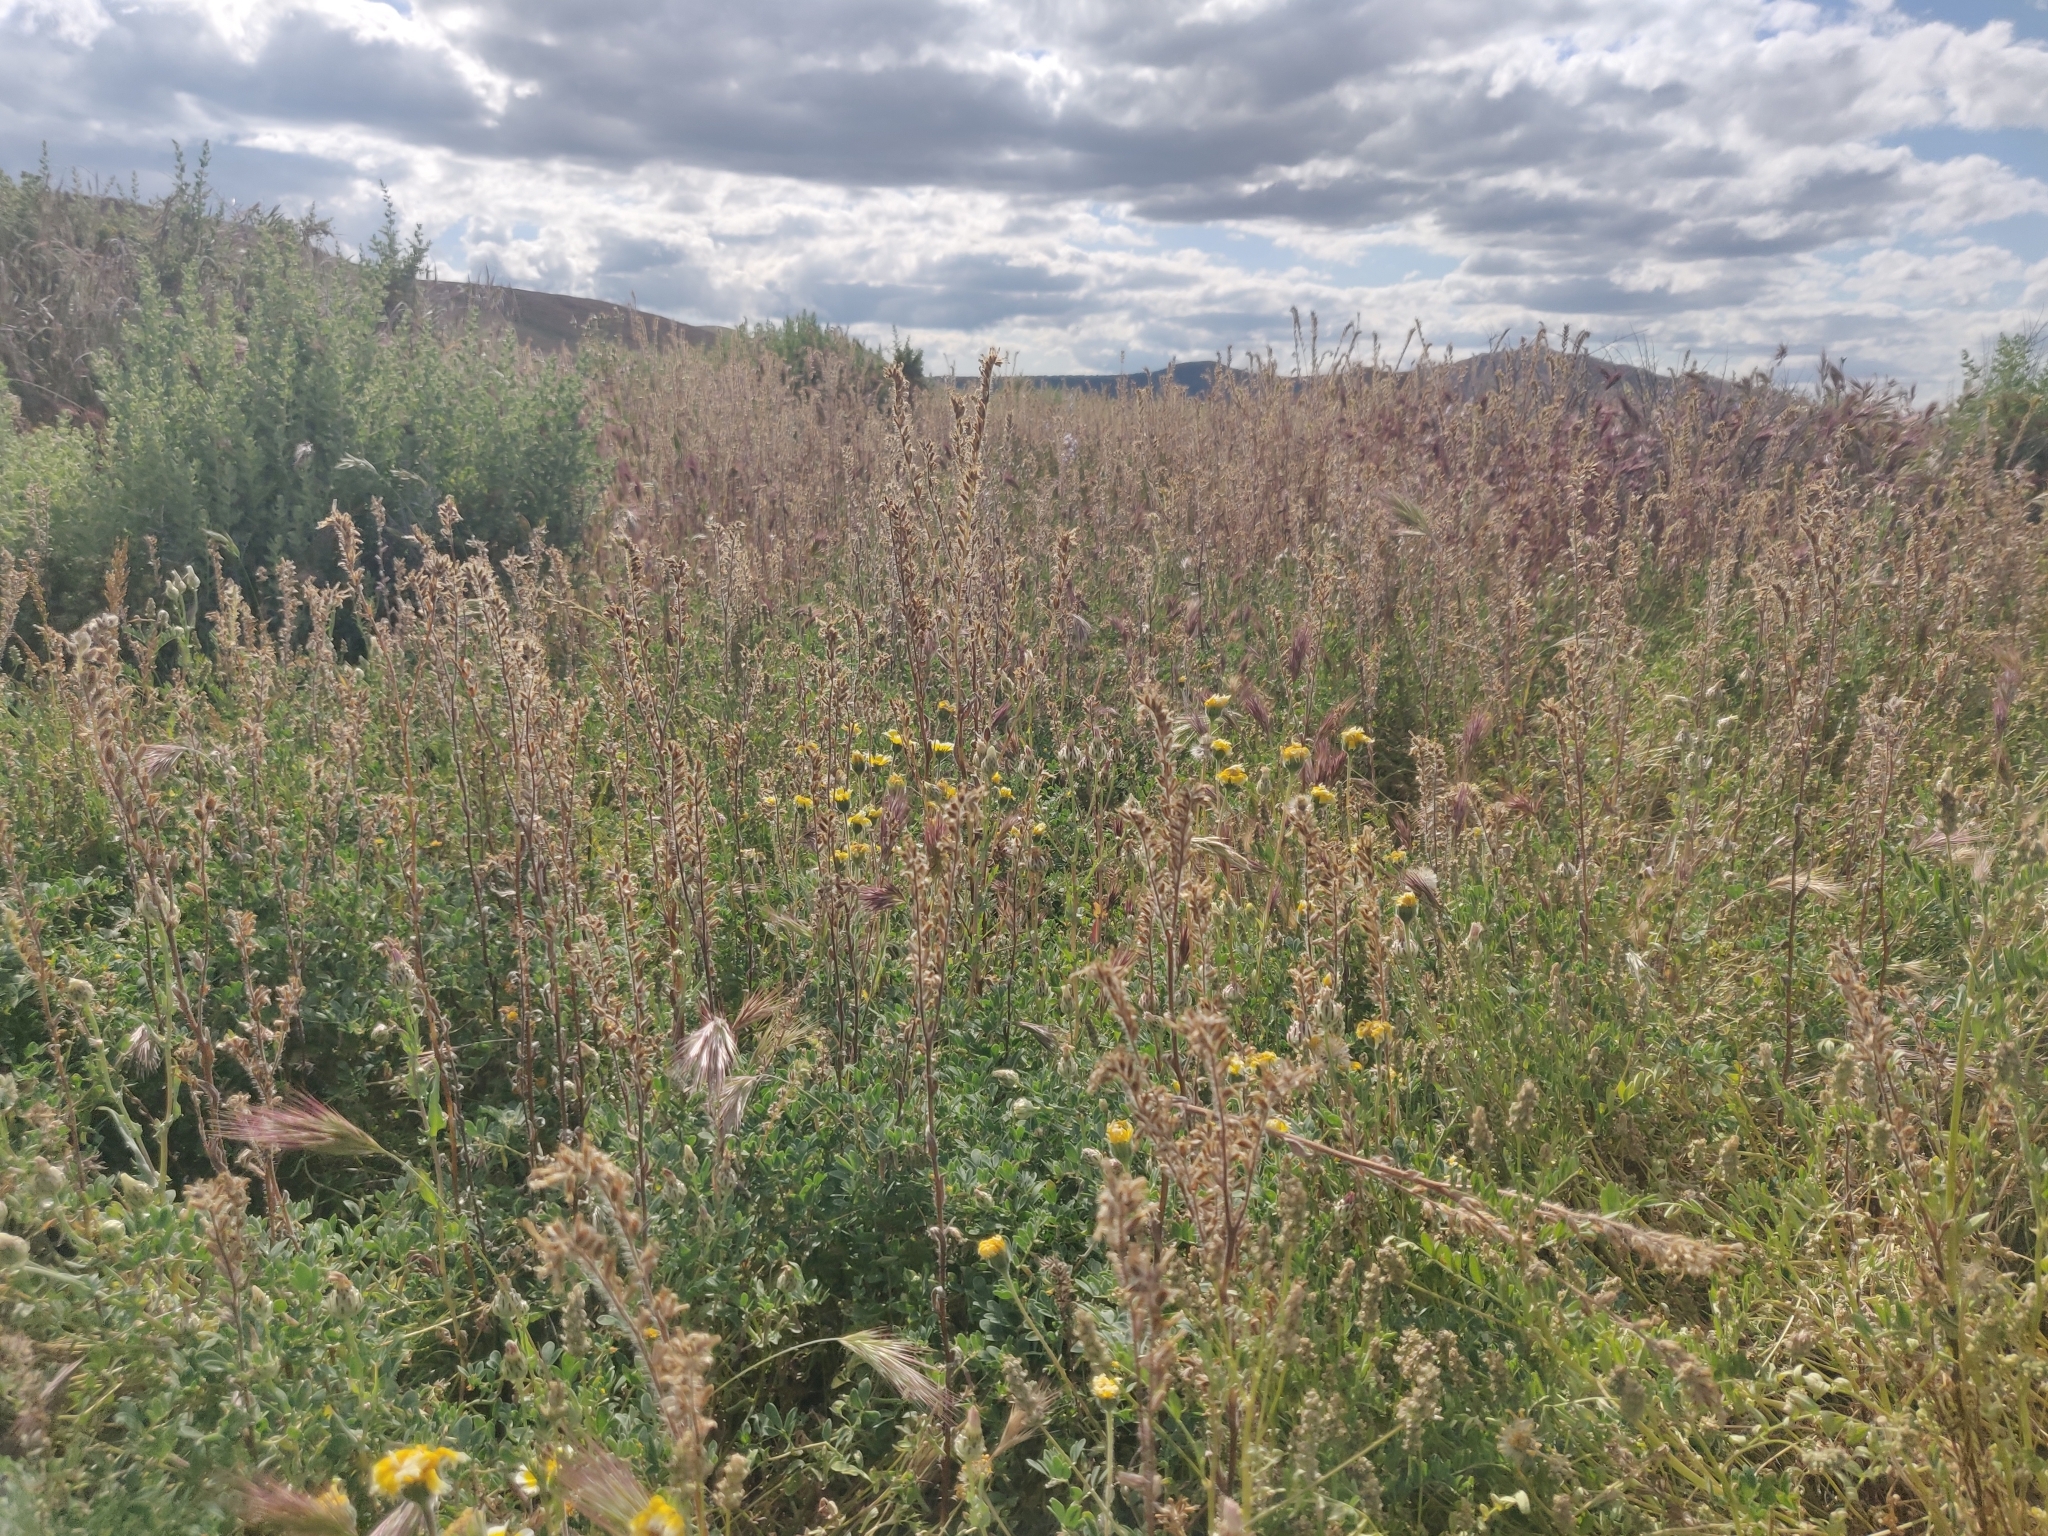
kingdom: Plantae
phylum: Tracheophyta
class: Magnoliopsida
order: Asterales
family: Asteraceae
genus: Layia
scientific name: Layia platyglossa
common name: Tidy-tips
